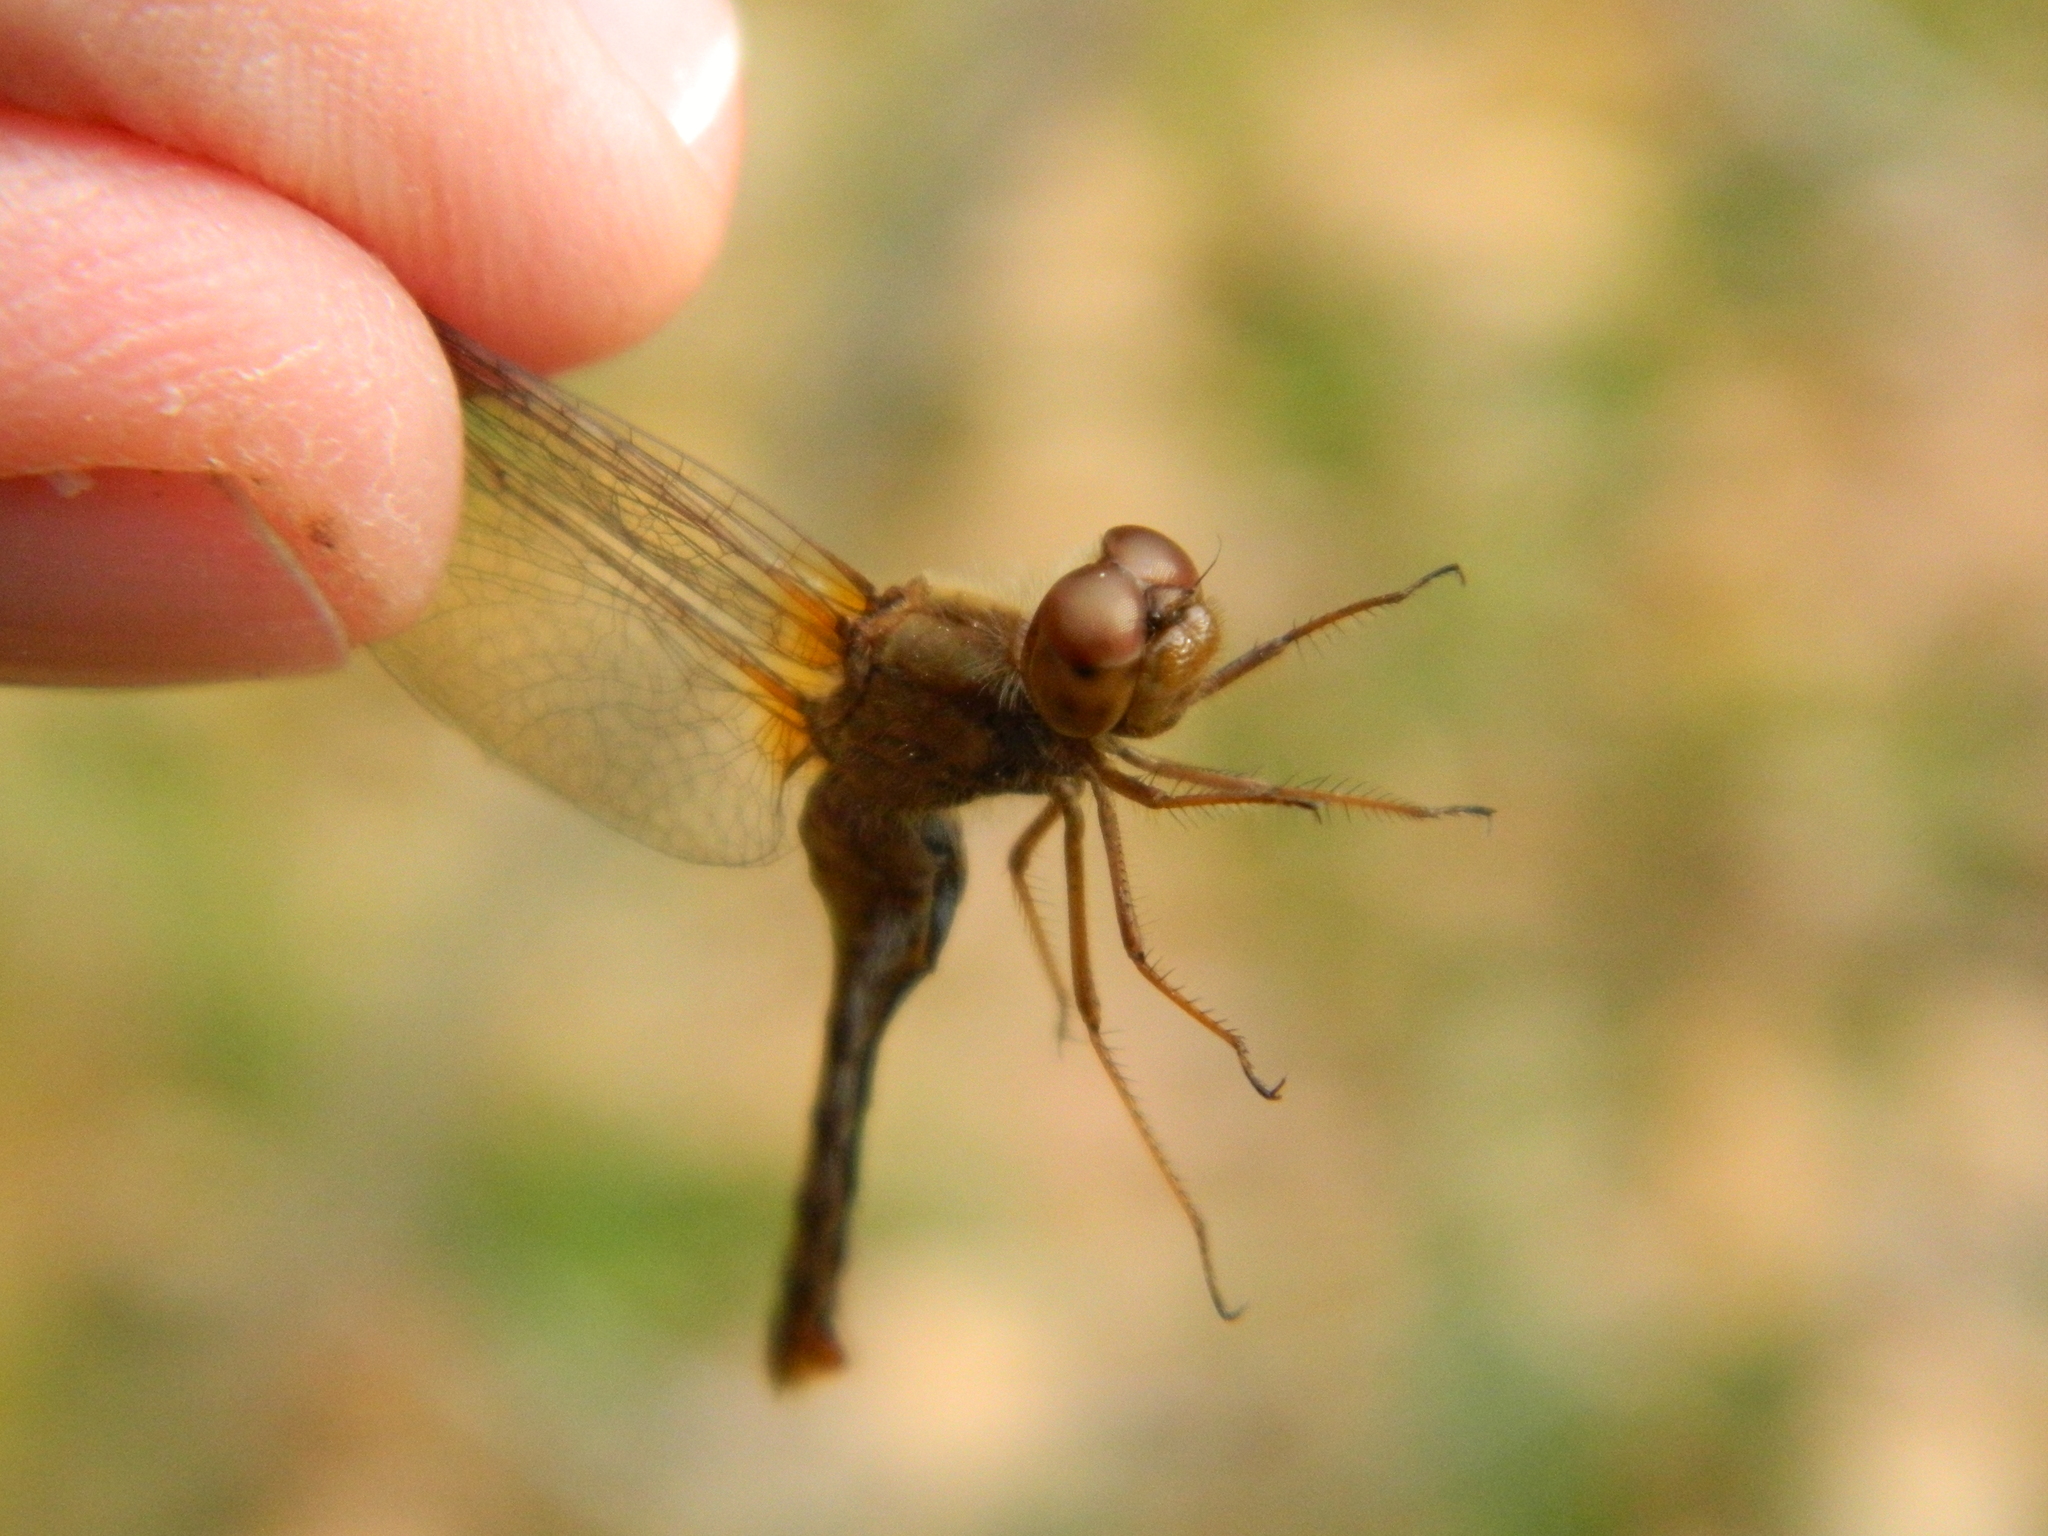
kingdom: Animalia
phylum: Arthropoda
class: Insecta
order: Odonata
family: Libellulidae
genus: Sympetrum
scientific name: Sympetrum vicinum
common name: Autumn meadowhawk
